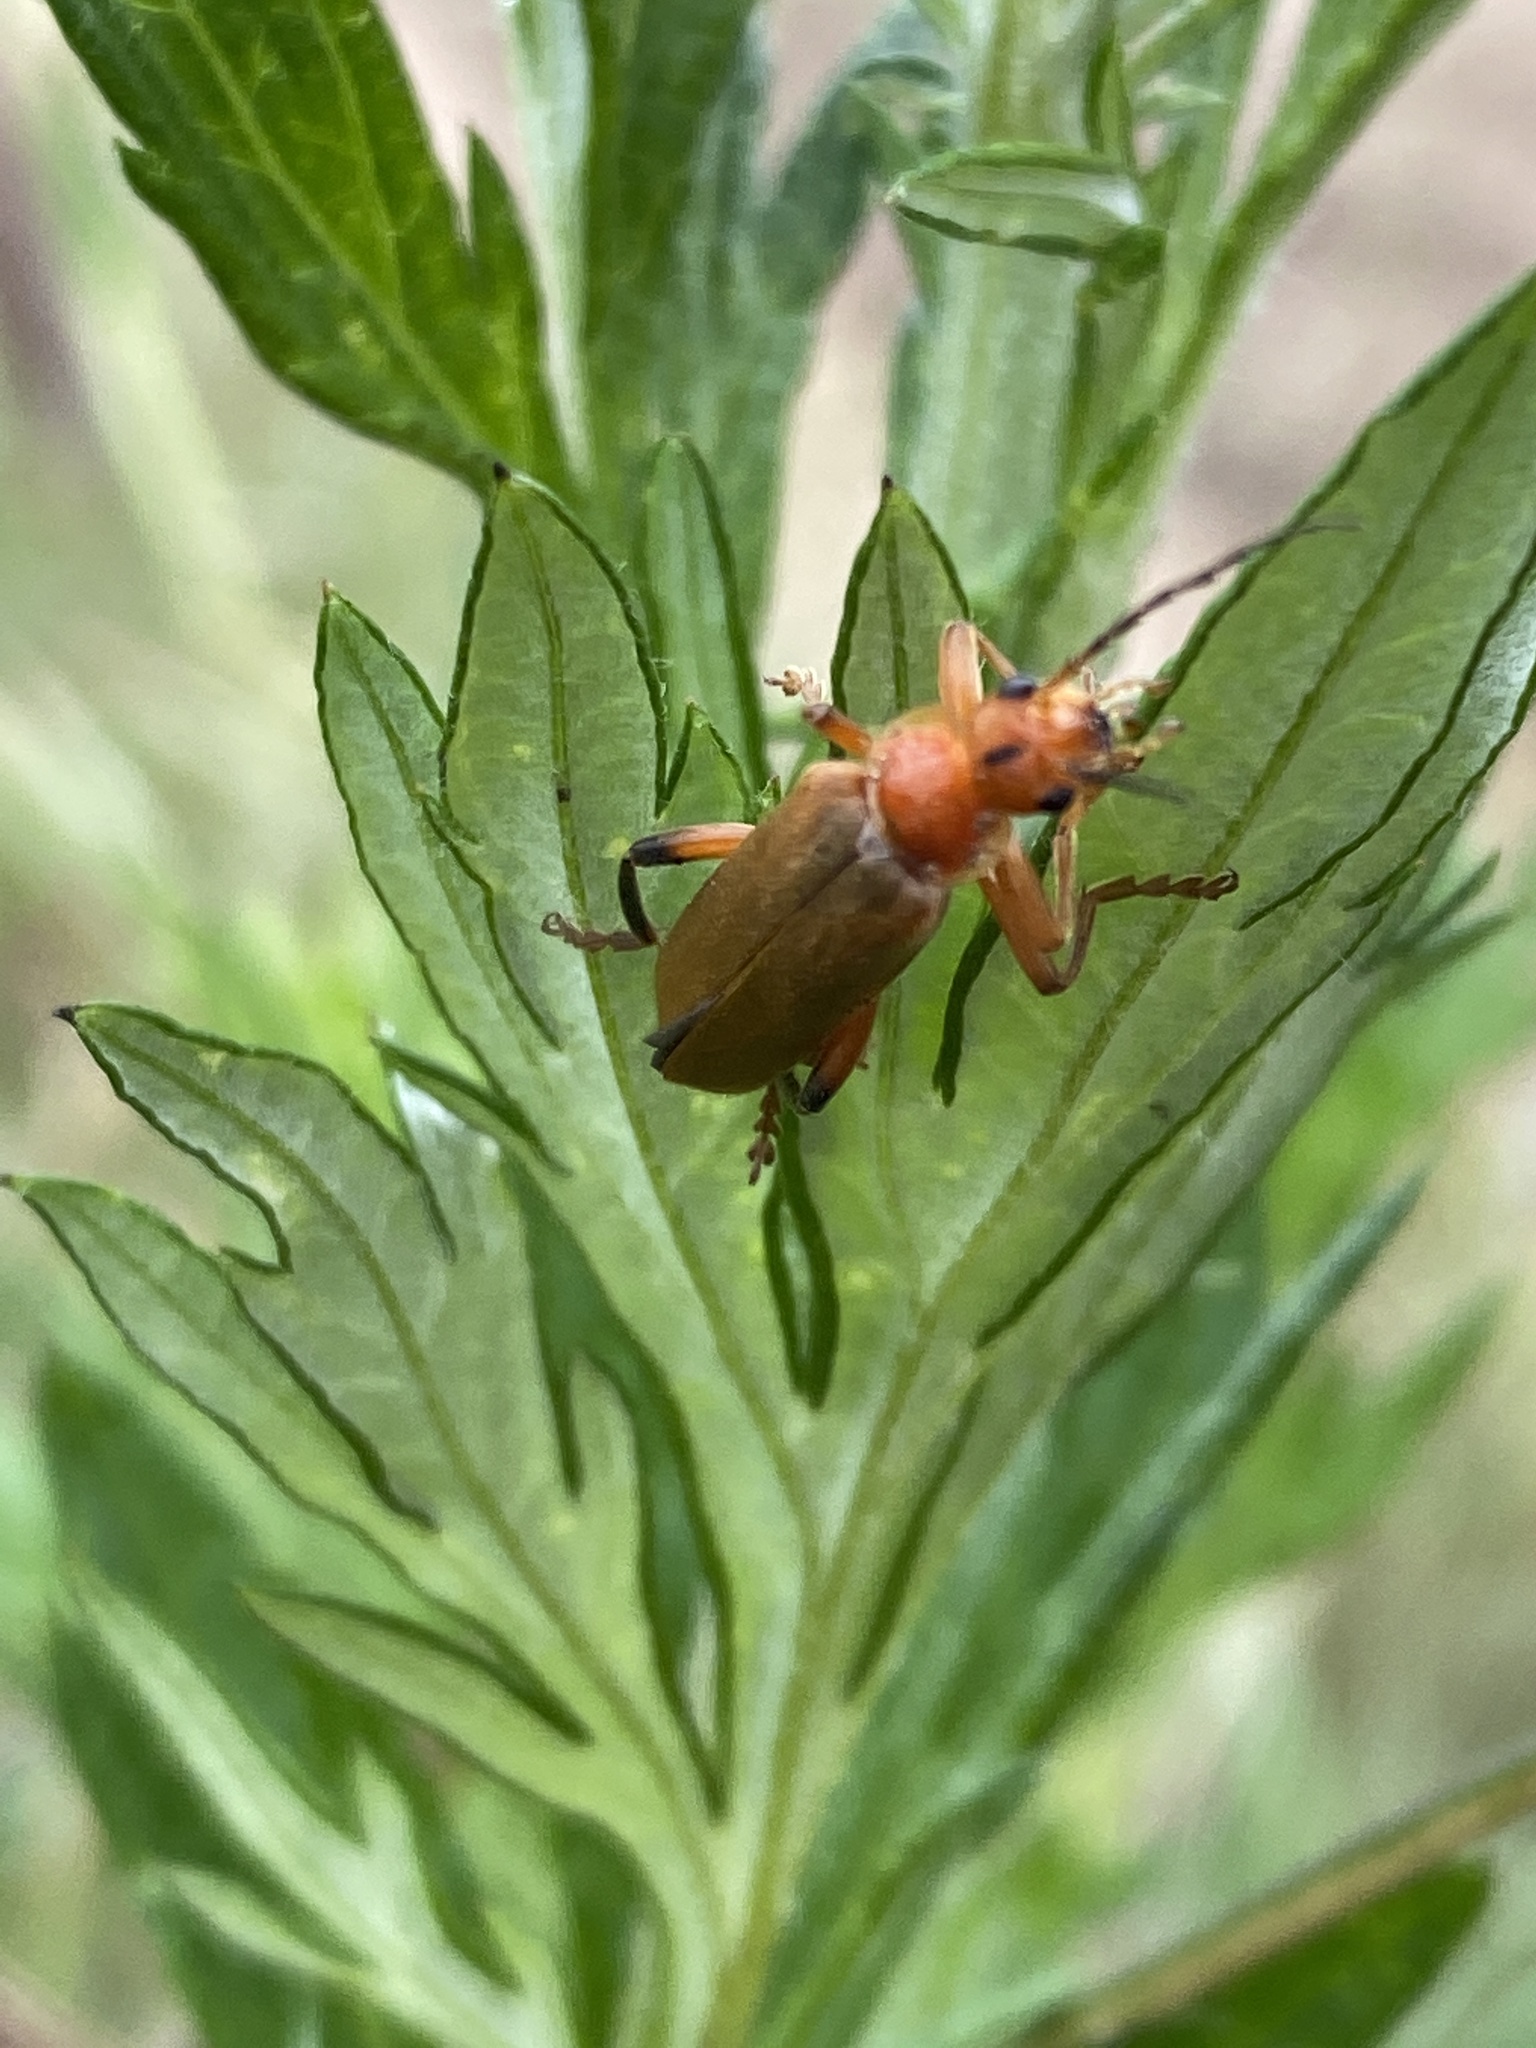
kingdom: Animalia
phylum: Arthropoda
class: Insecta
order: Coleoptera
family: Cantharidae
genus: Cantharis
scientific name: Cantharis livida
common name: Livid soldier beetle
